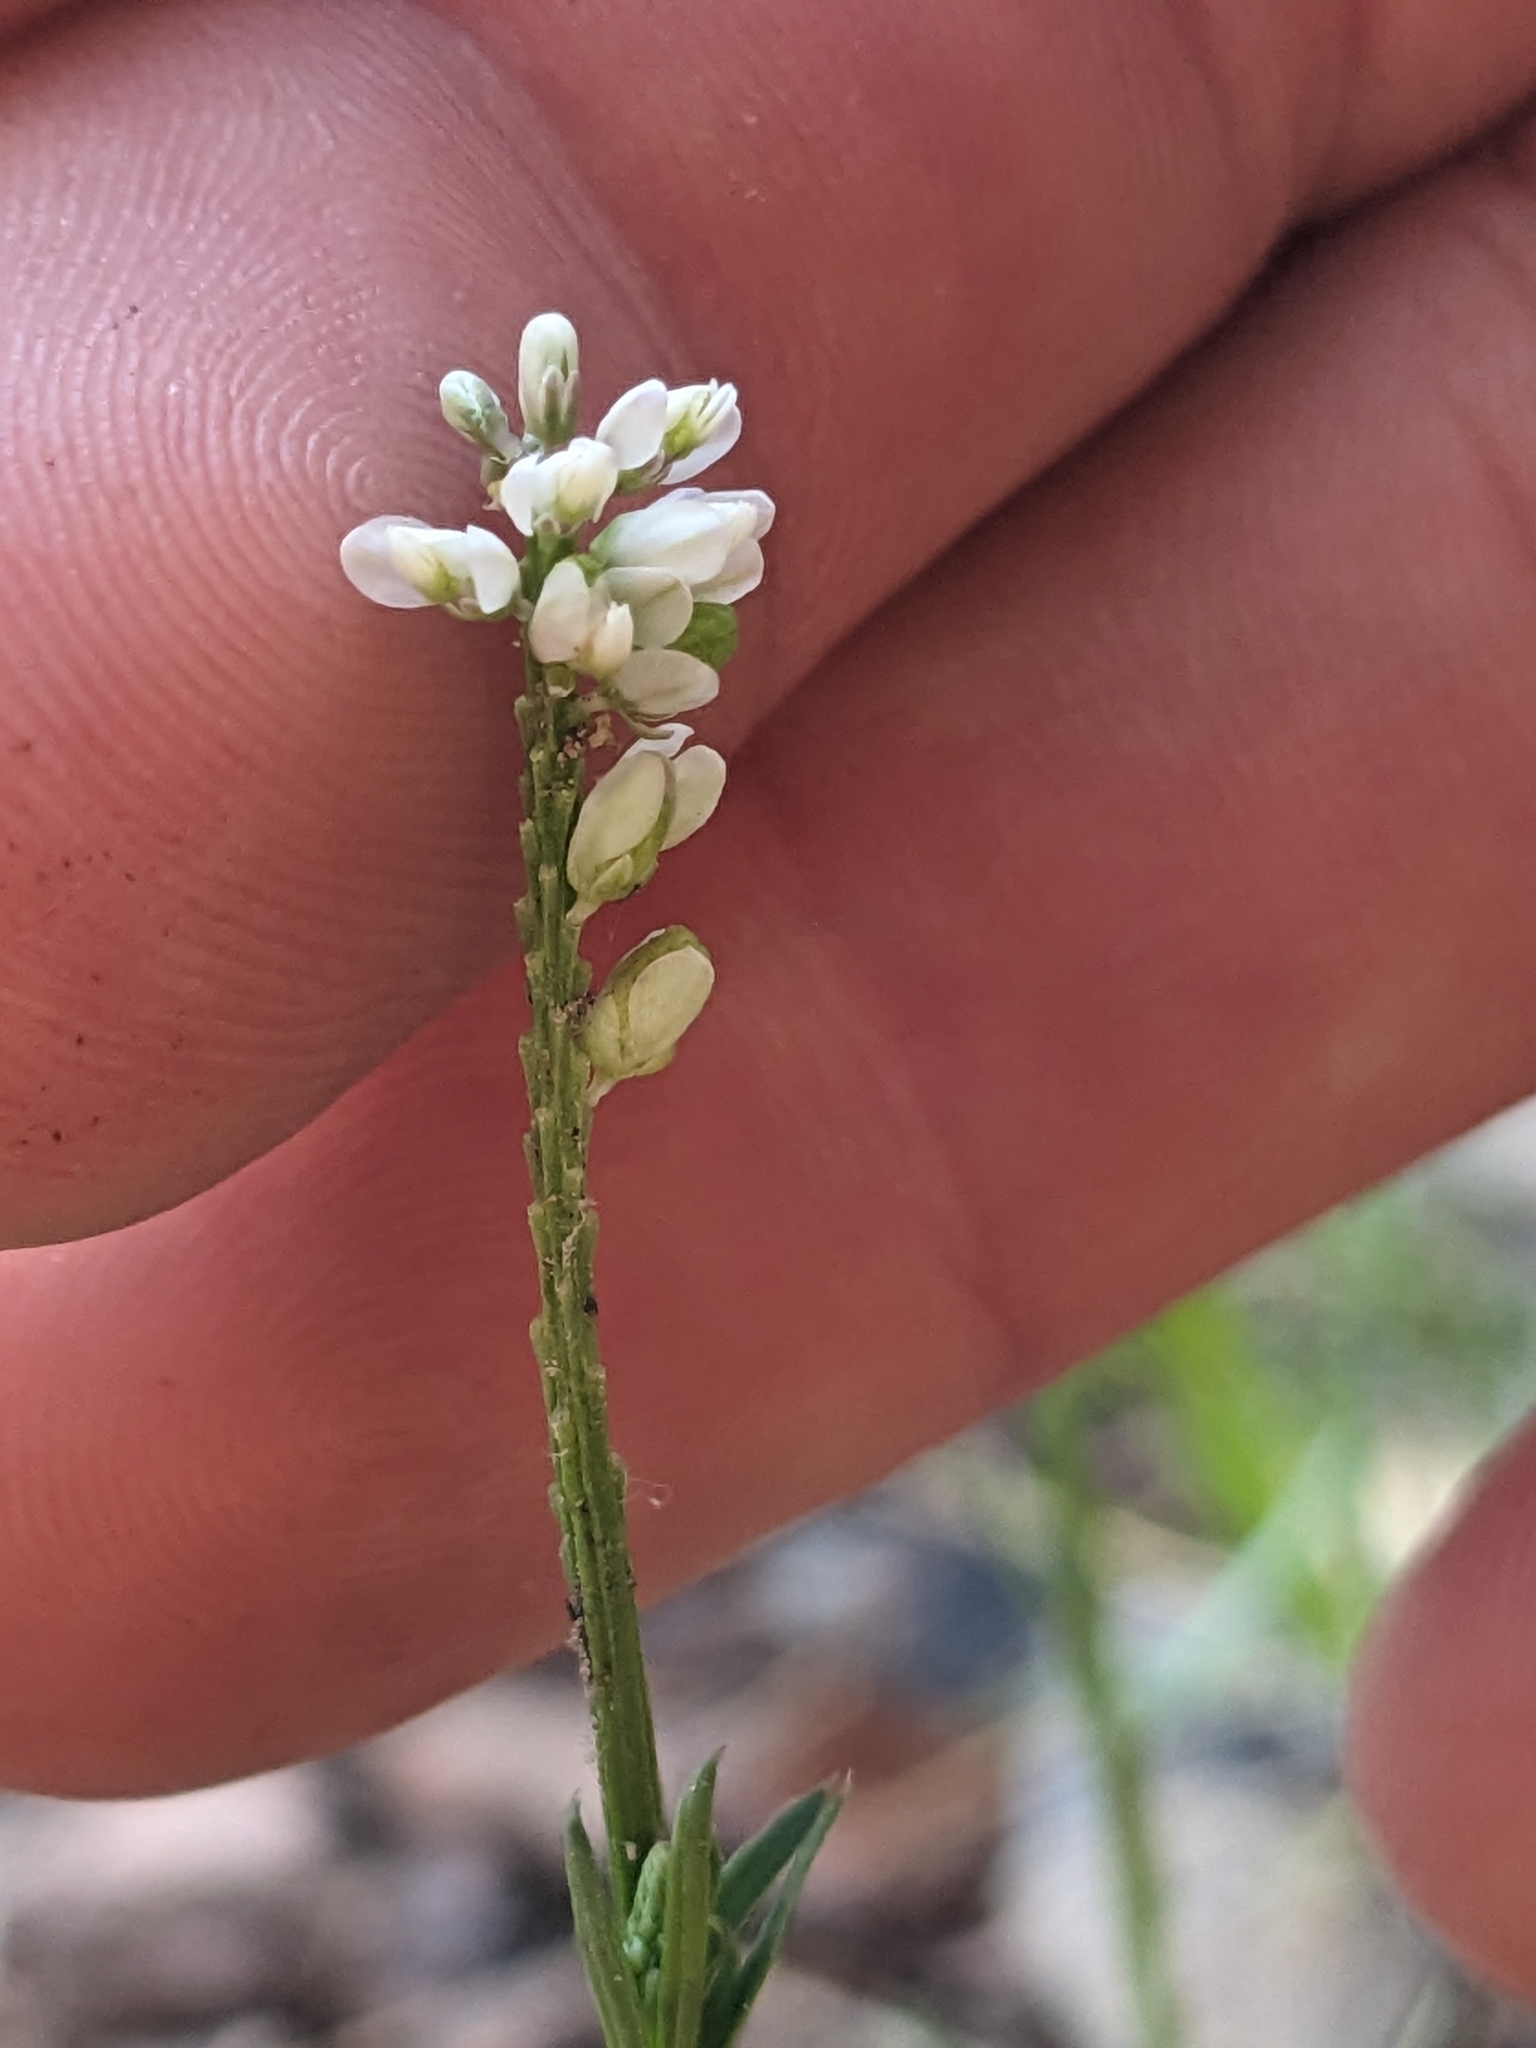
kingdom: Plantae
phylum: Tracheophyta
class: Magnoliopsida
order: Fabales
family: Polygalaceae
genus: Polygala
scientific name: Polygala alba
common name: White milkwort
